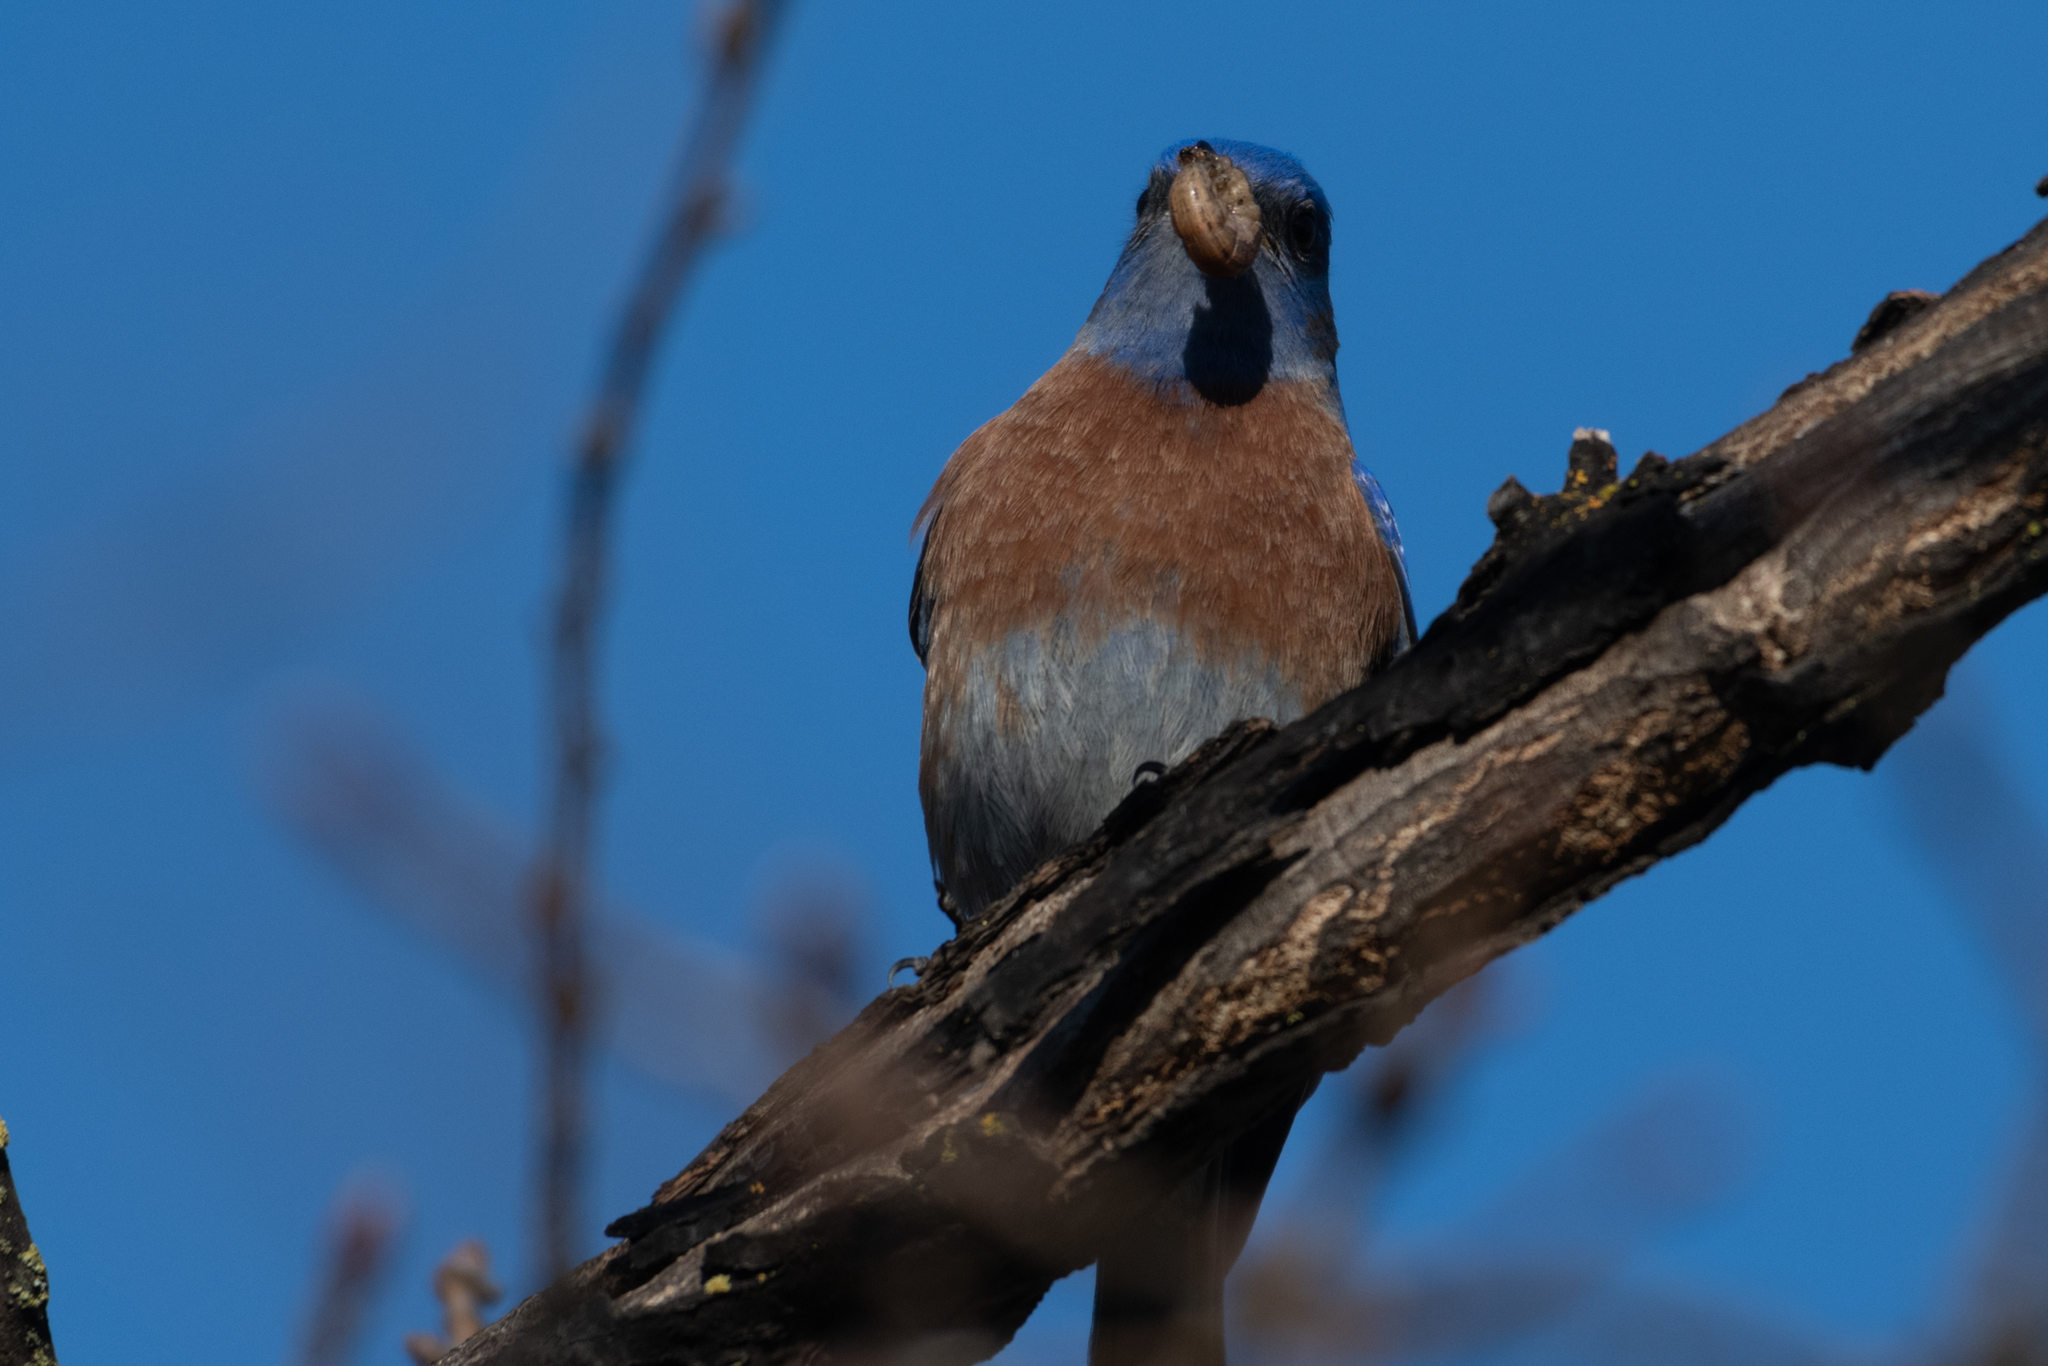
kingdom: Animalia
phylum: Chordata
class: Aves
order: Passeriformes
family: Turdidae
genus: Sialia
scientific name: Sialia mexicana
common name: Western bluebird
